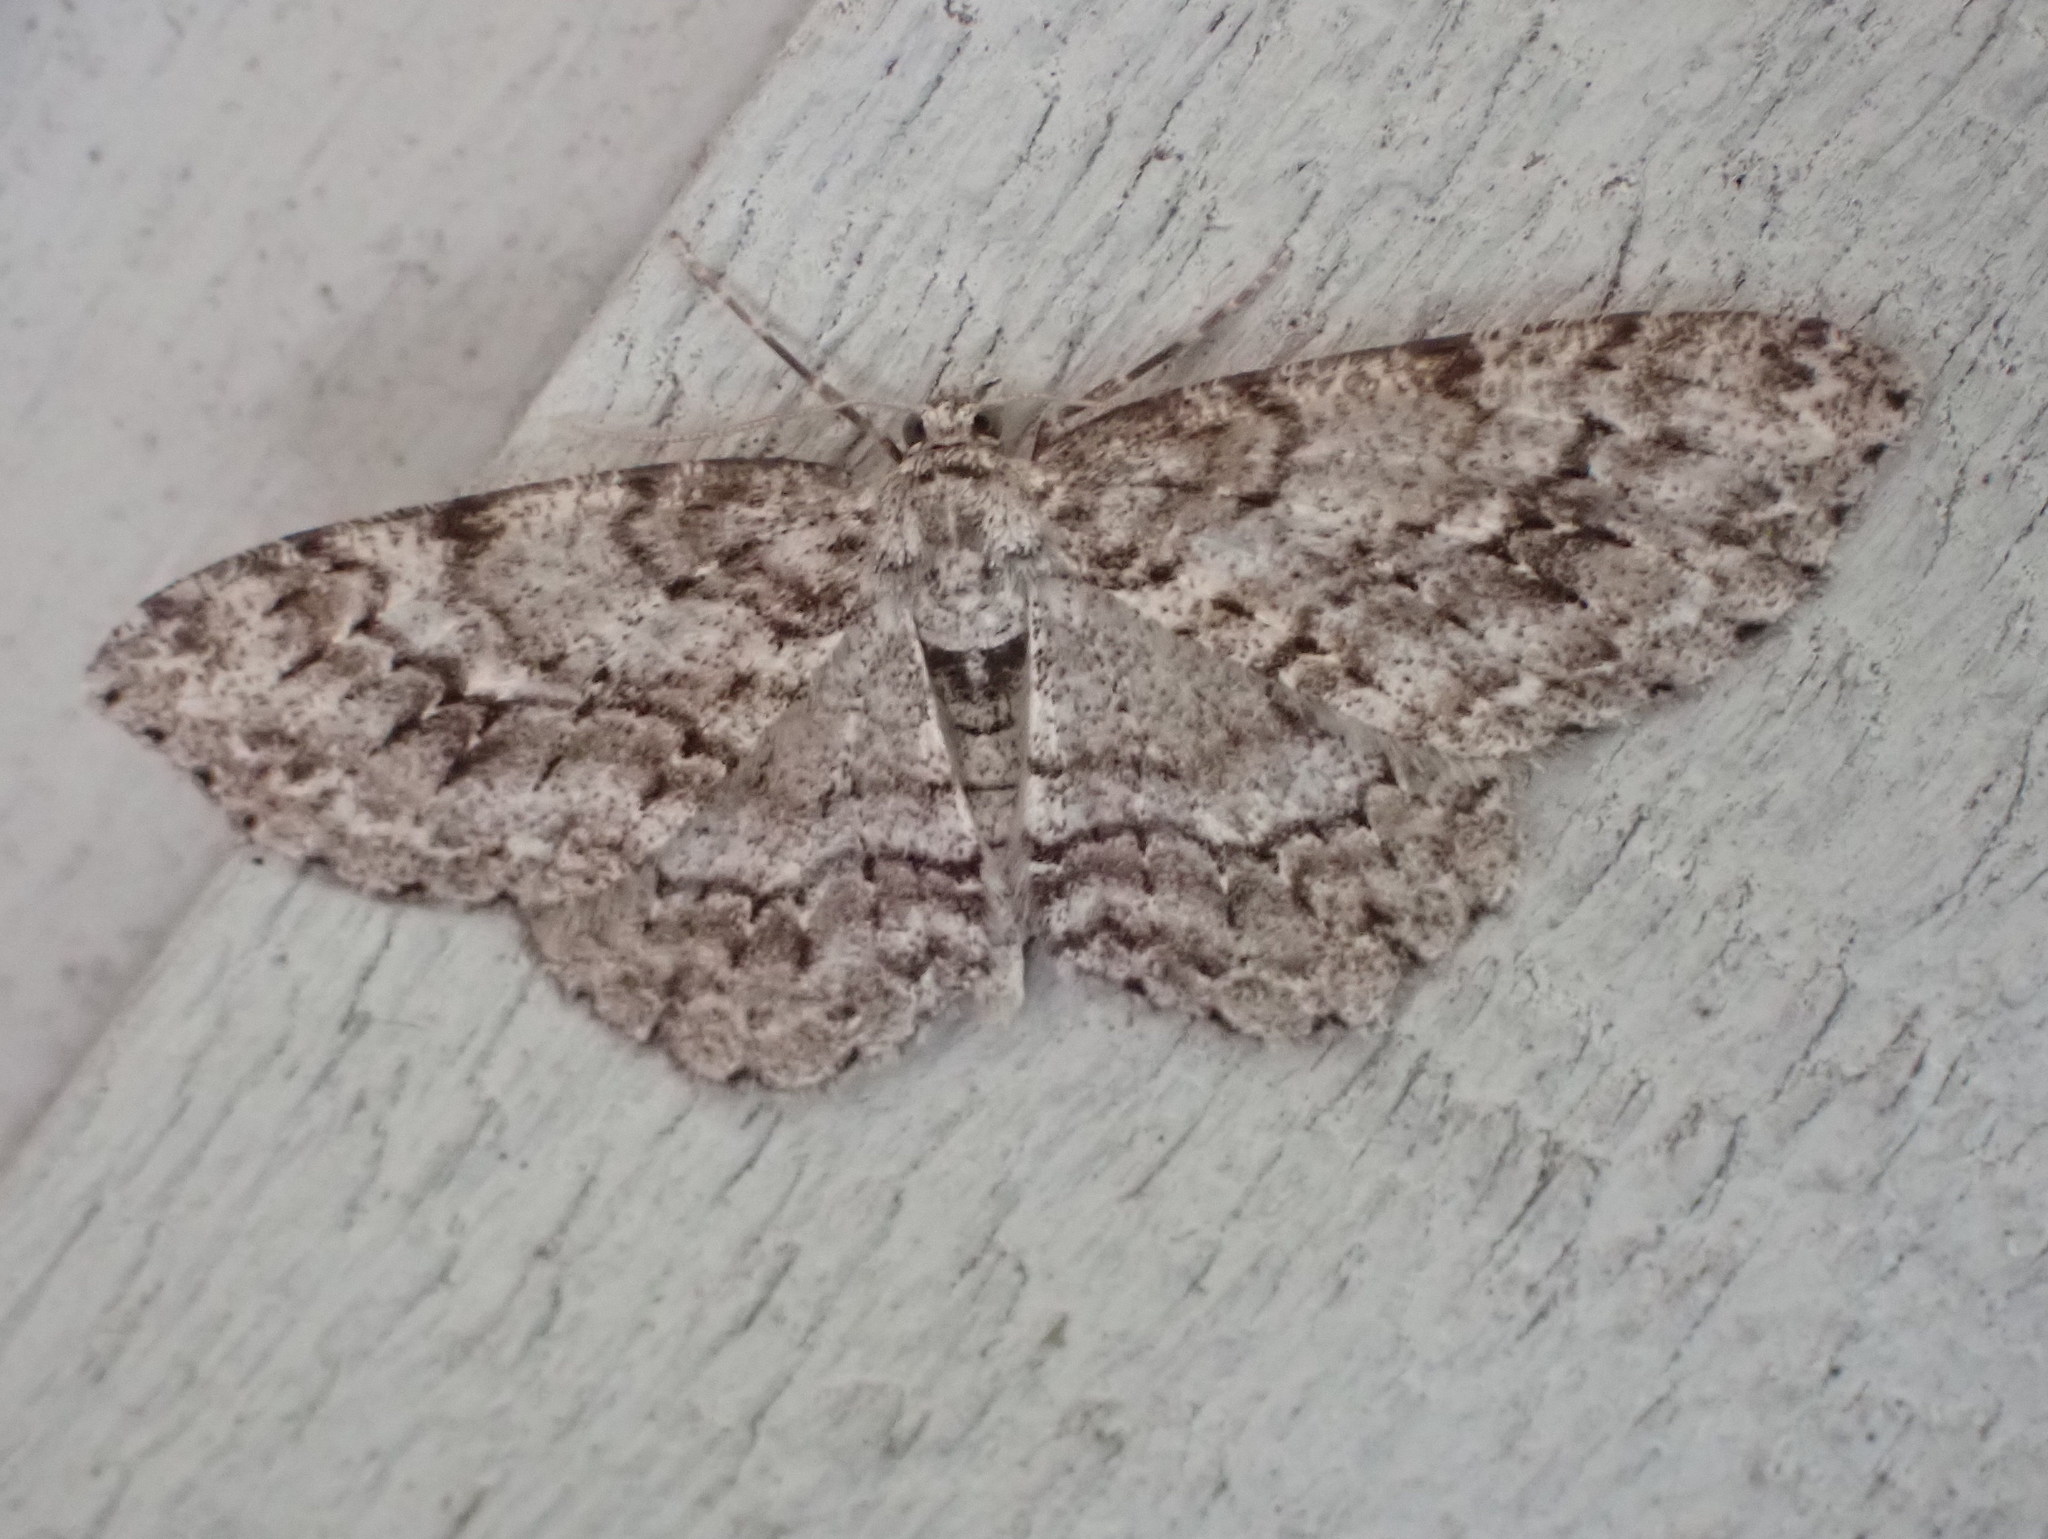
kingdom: Animalia
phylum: Arthropoda
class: Insecta
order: Lepidoptera
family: Geometridae
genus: Ectropis
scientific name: Ectropis crepuscularia
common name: Engrailed
